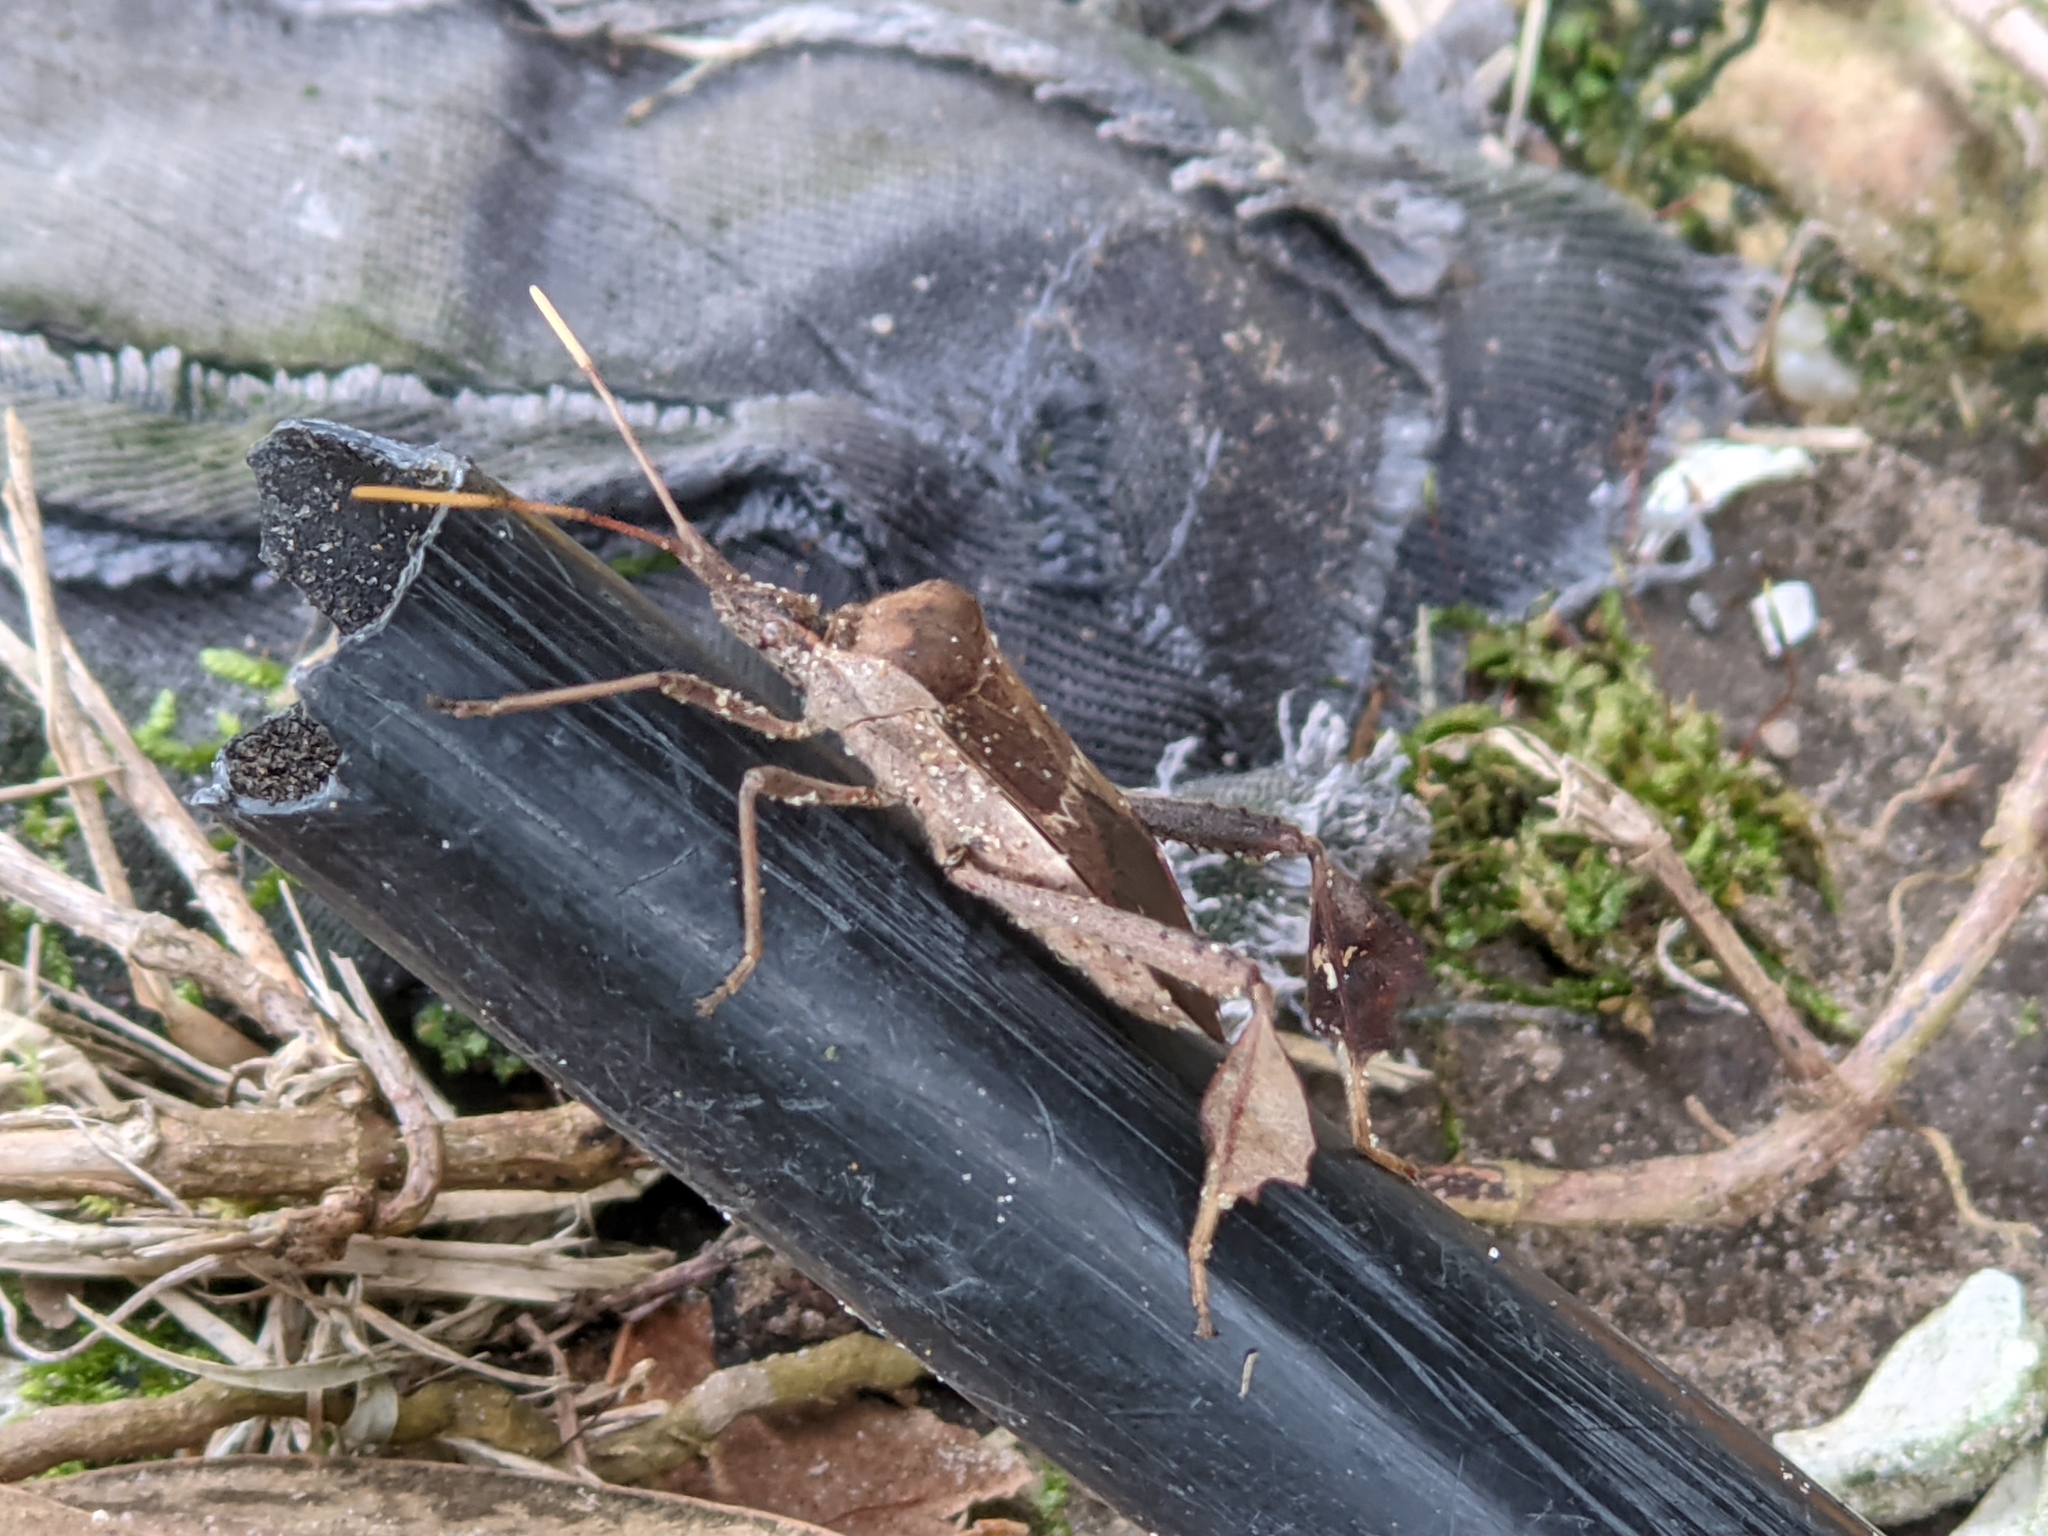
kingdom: Animalia
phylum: Arthropoda
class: Insecta
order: Hemiptera
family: Coreidae
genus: Leptoglossus
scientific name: Leptoglossus zonatus
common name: Large-legged bug
